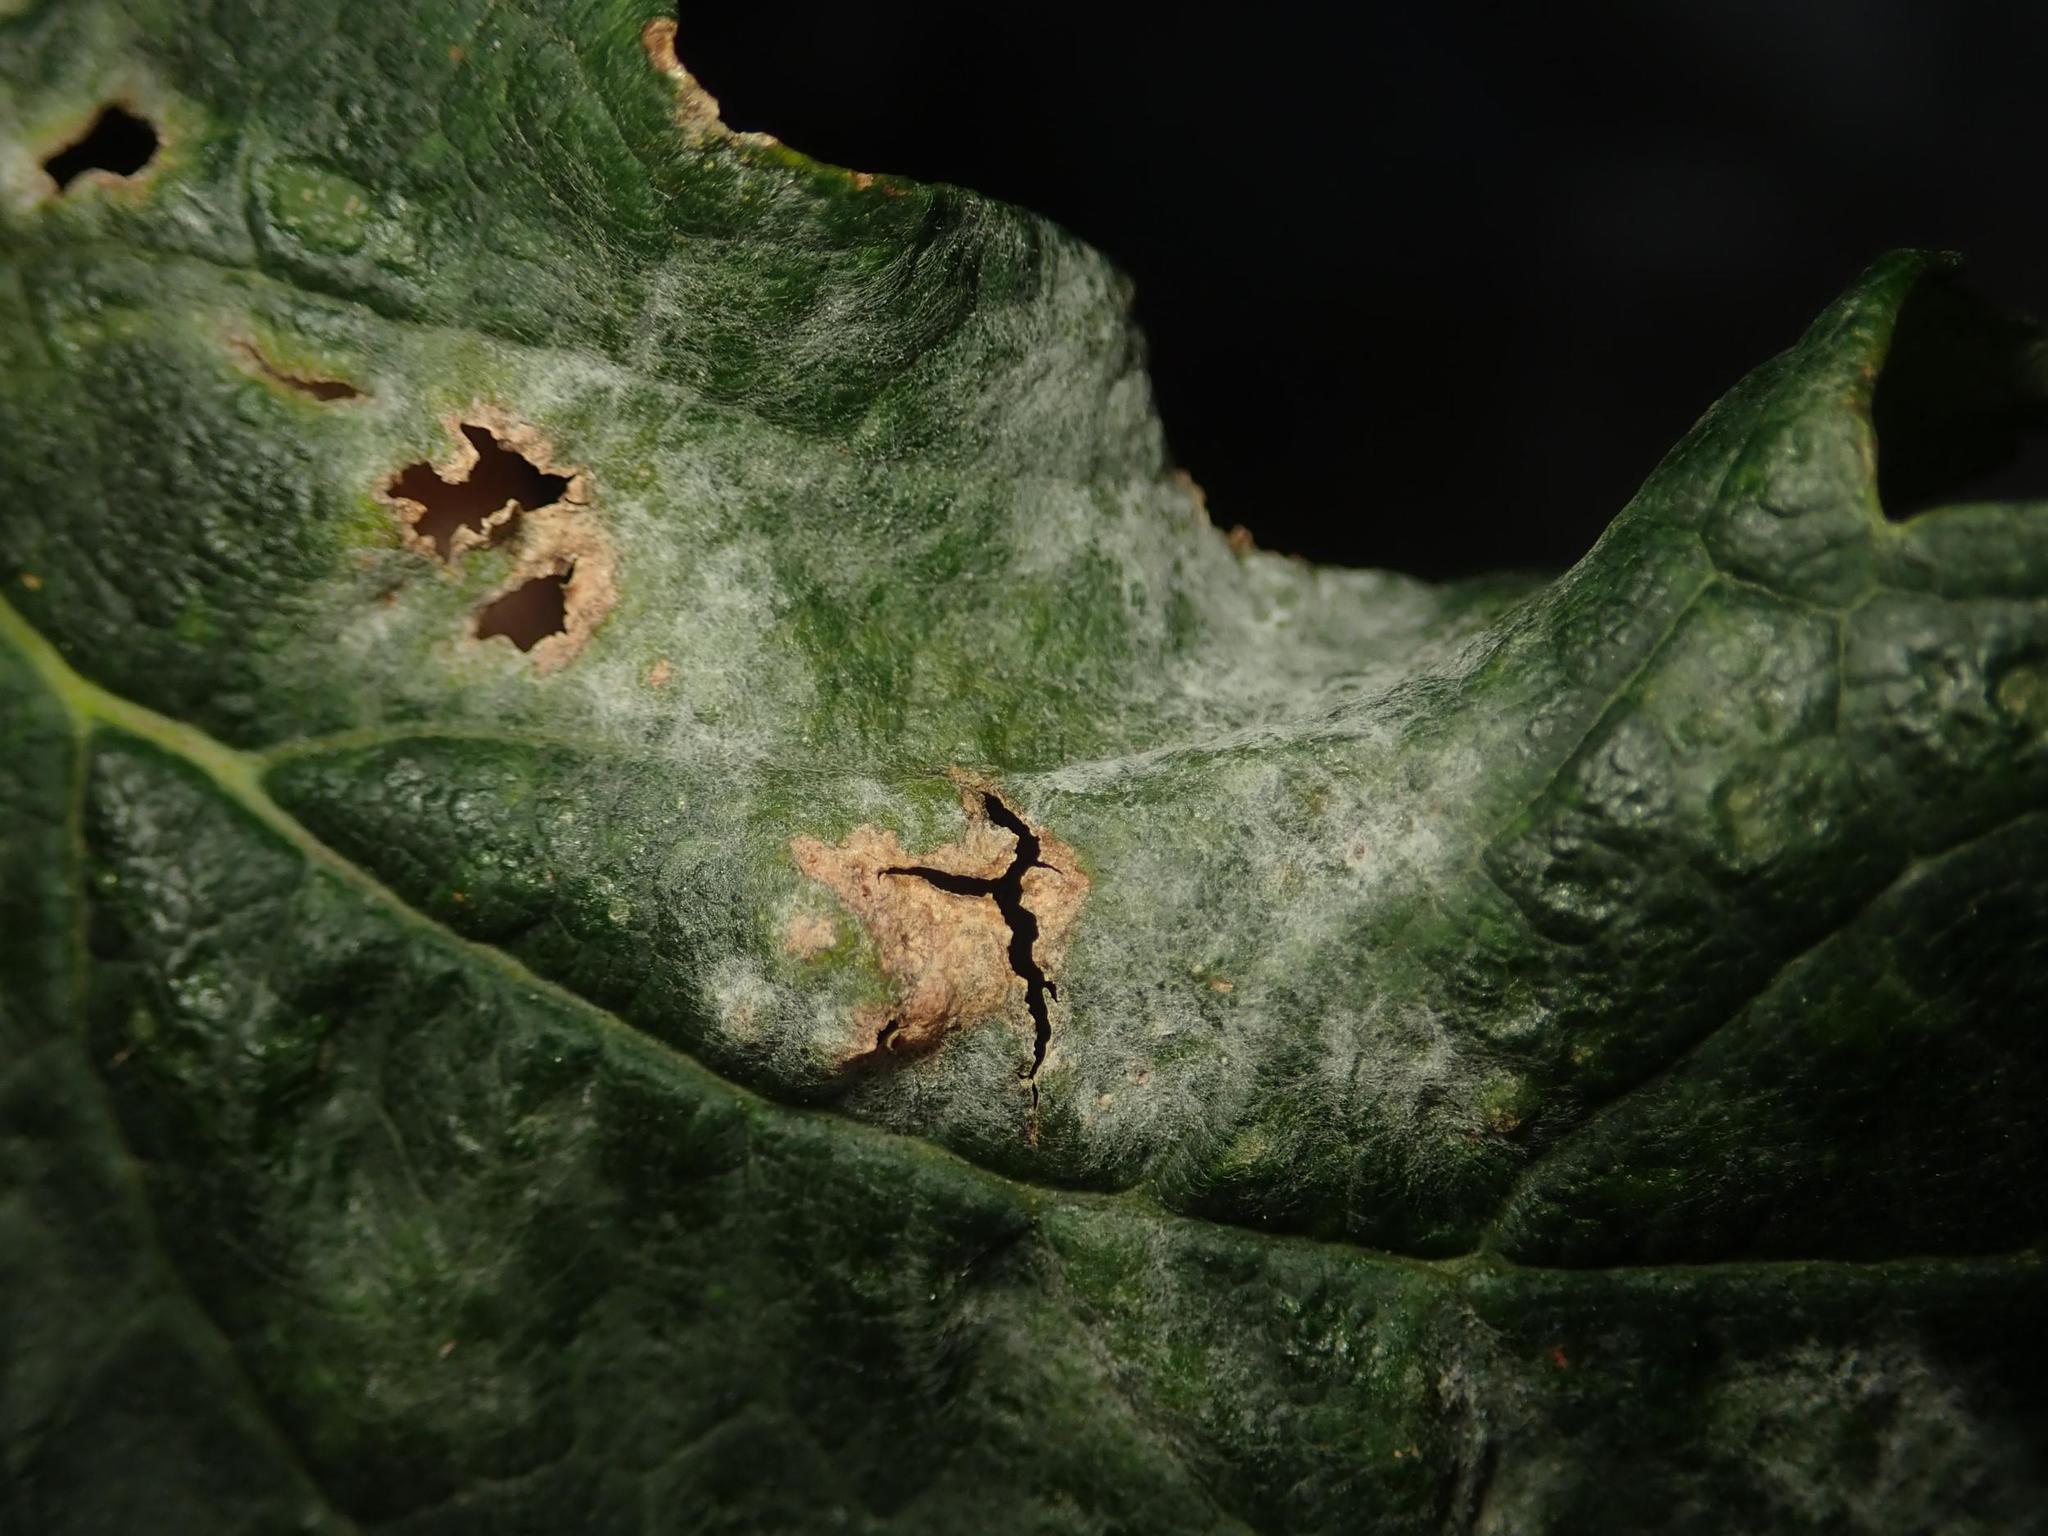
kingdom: Fungi
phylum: Ascomycota
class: Leotiomycetes
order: Helotiales
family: Erysiphaceae
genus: Sawadaea
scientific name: Sawadaea bicornis
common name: Maple mildew
